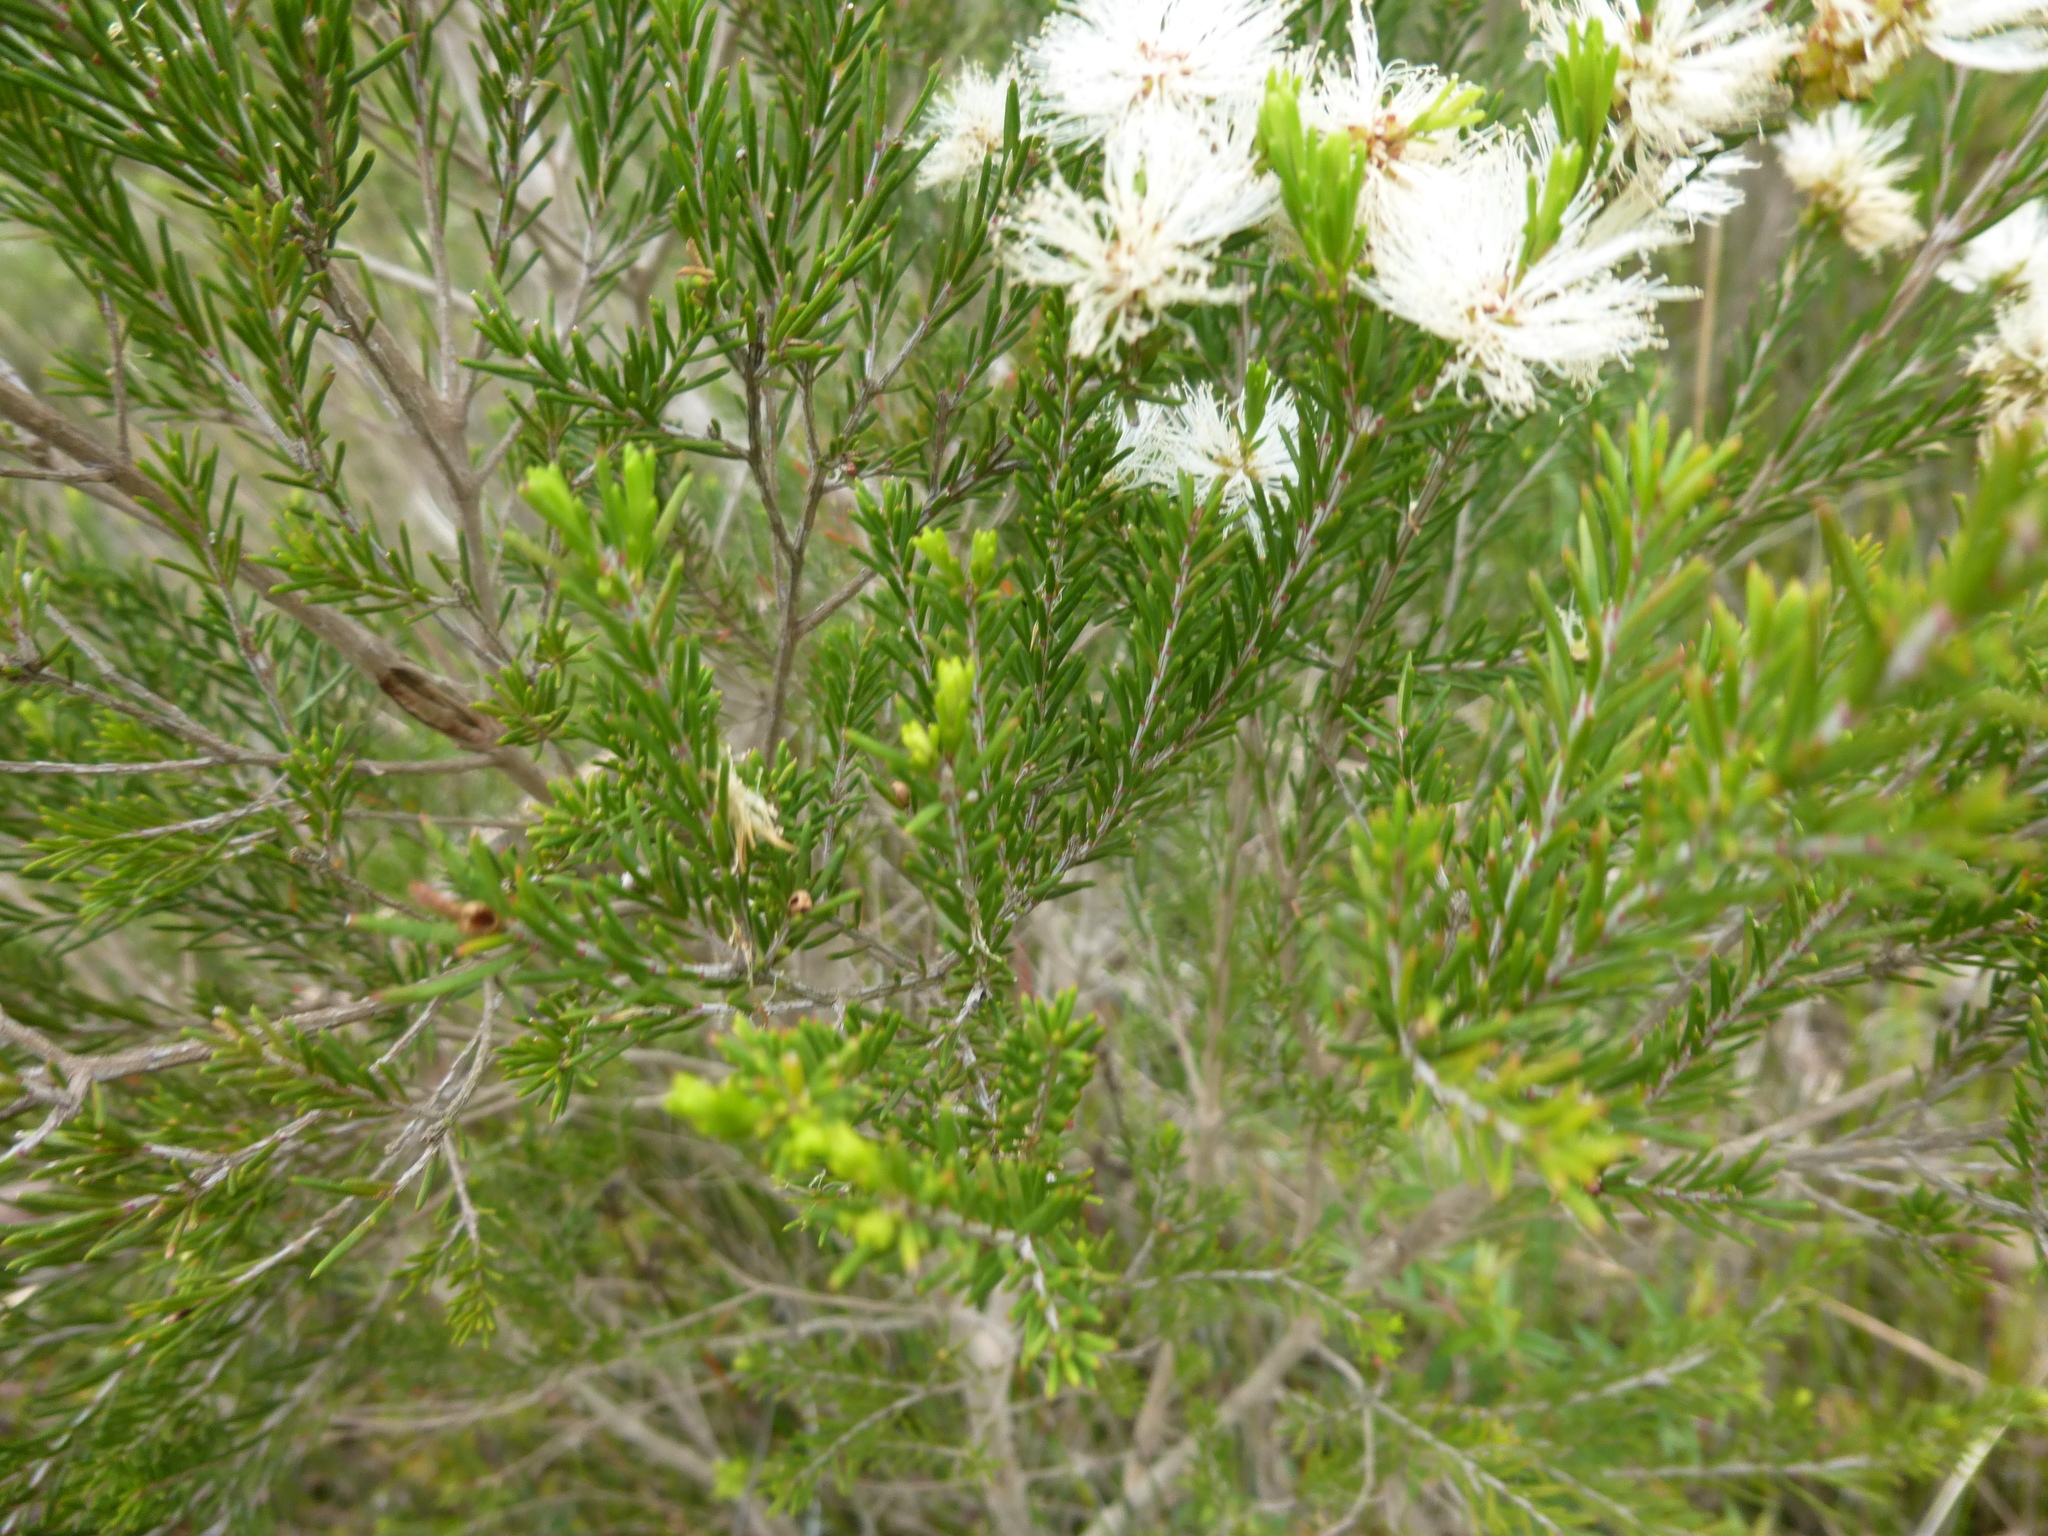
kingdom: Plantae
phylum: Tracheophyta
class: Magnoliopsida
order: Myrtales
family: Myrtaceae
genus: Melaleuca
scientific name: Melaleuca ericifolia
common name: Paperbark teatree
